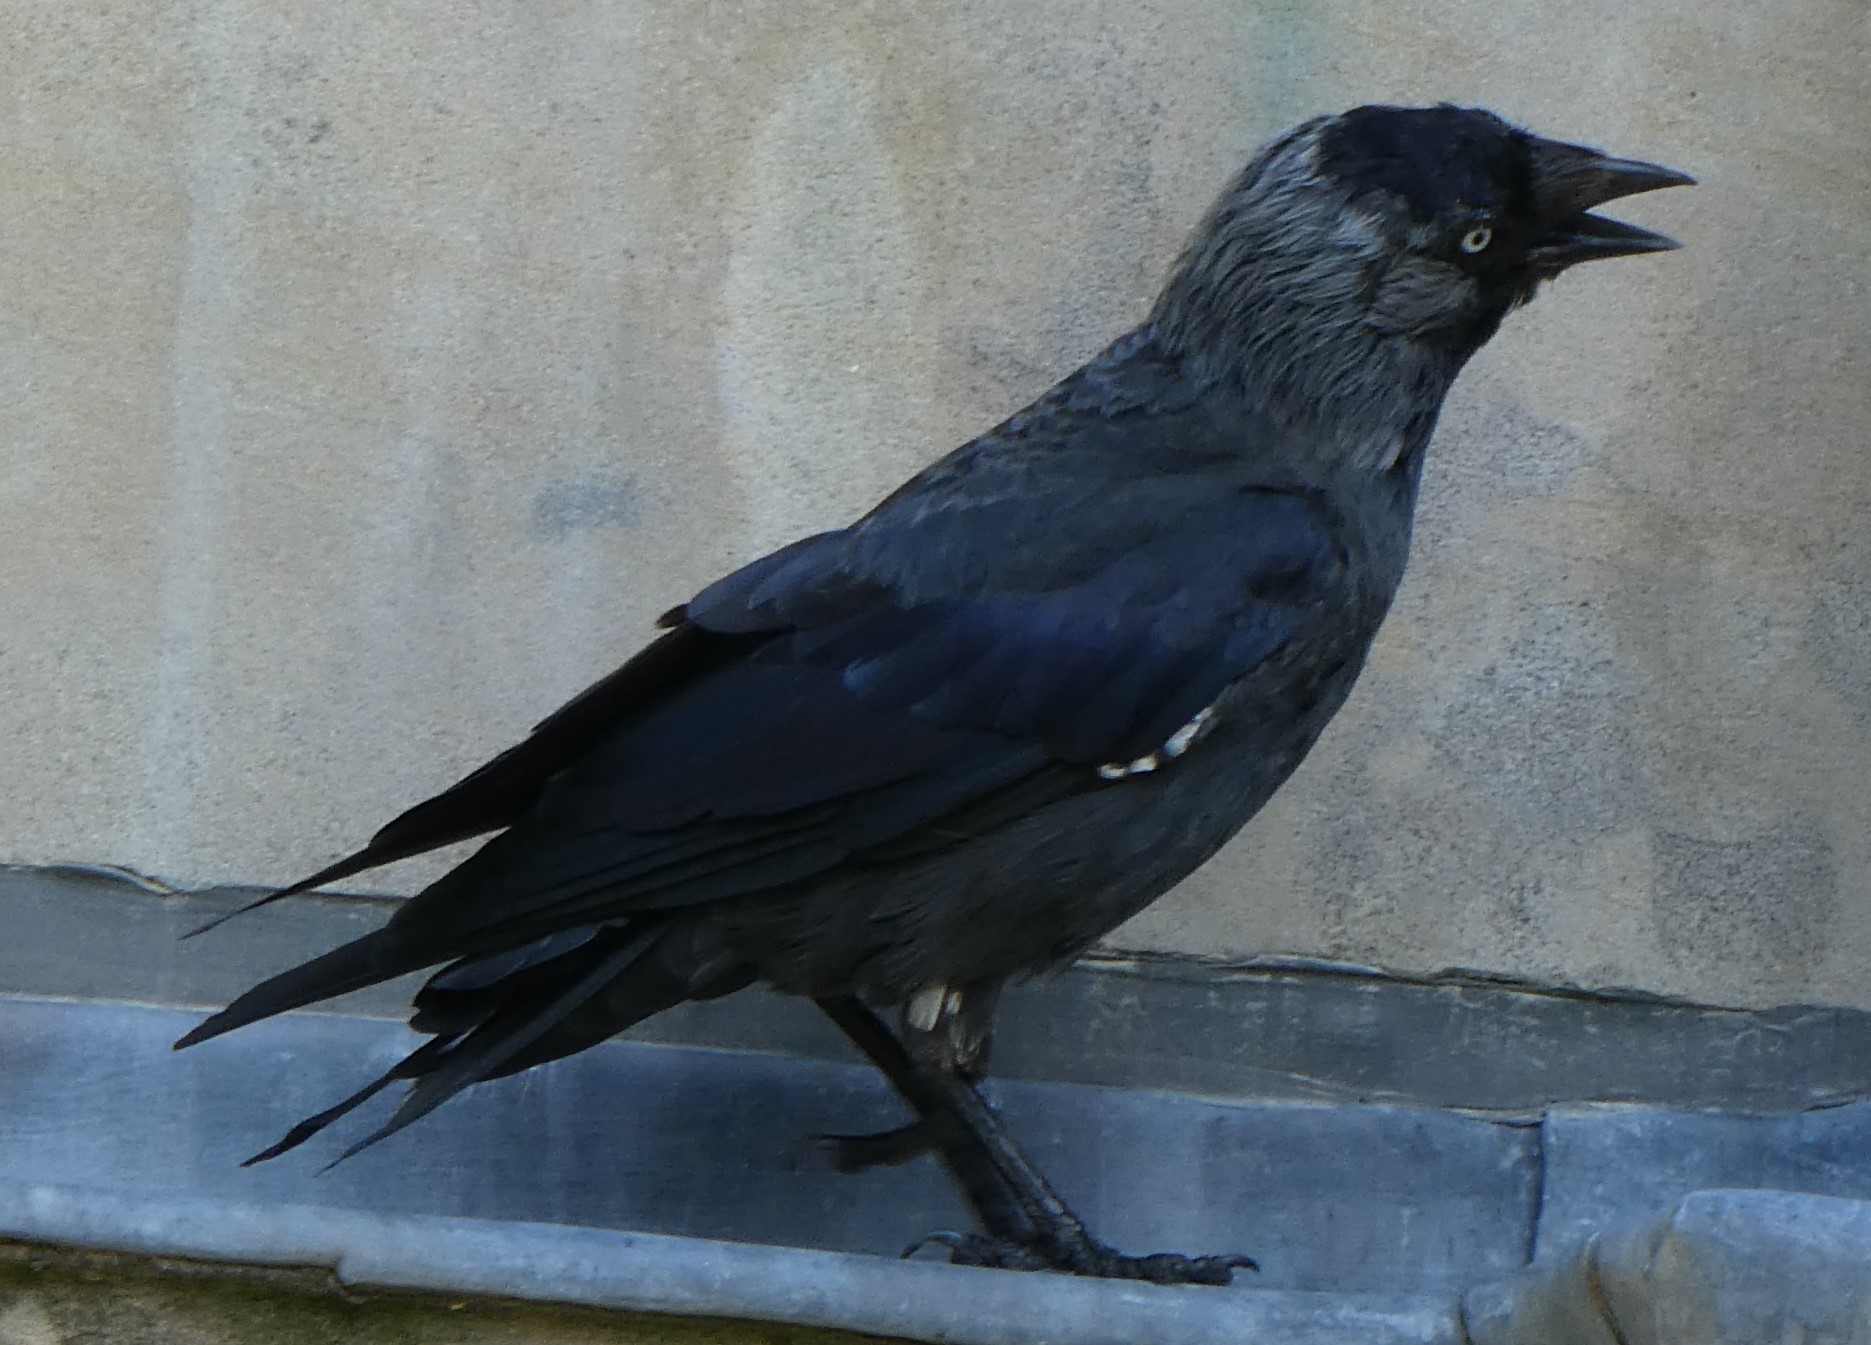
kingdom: Animalia
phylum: Chordata
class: Aves
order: Passeriformes
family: Corvidae
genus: Coloeus
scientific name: Coloeus monedula
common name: Western jackdaw
